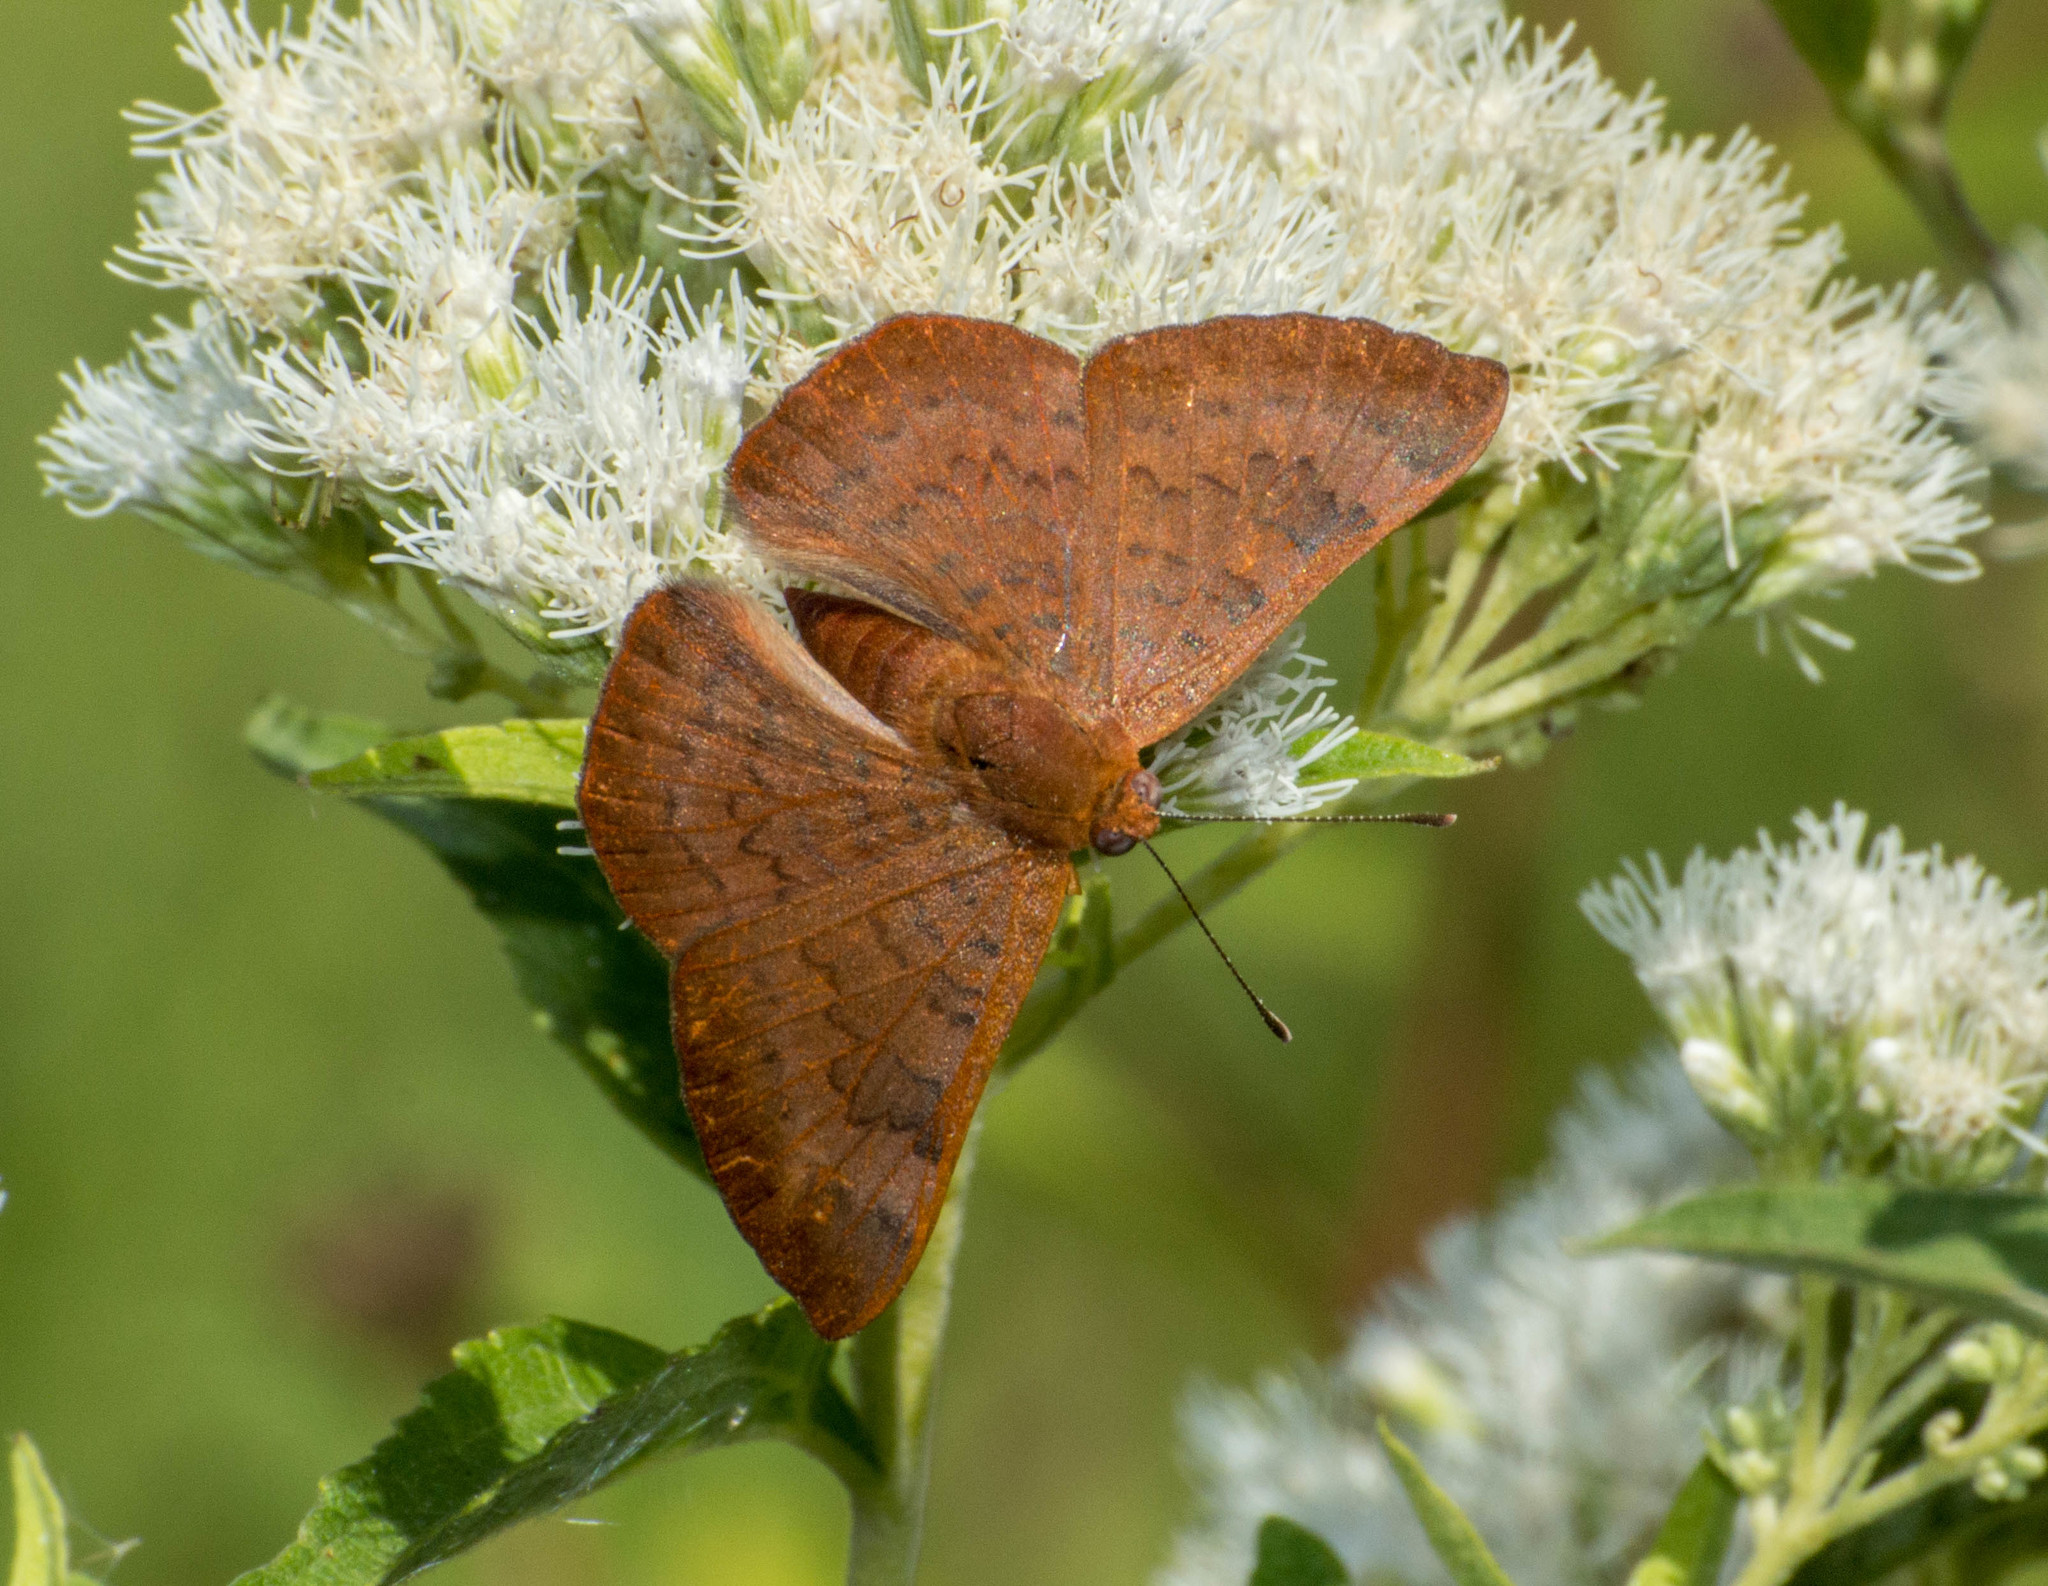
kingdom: Animalia
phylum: Arthropoda
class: Insecta
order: Lepidoptera
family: Lycaenidae
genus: Emesis
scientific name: Emesis russula
